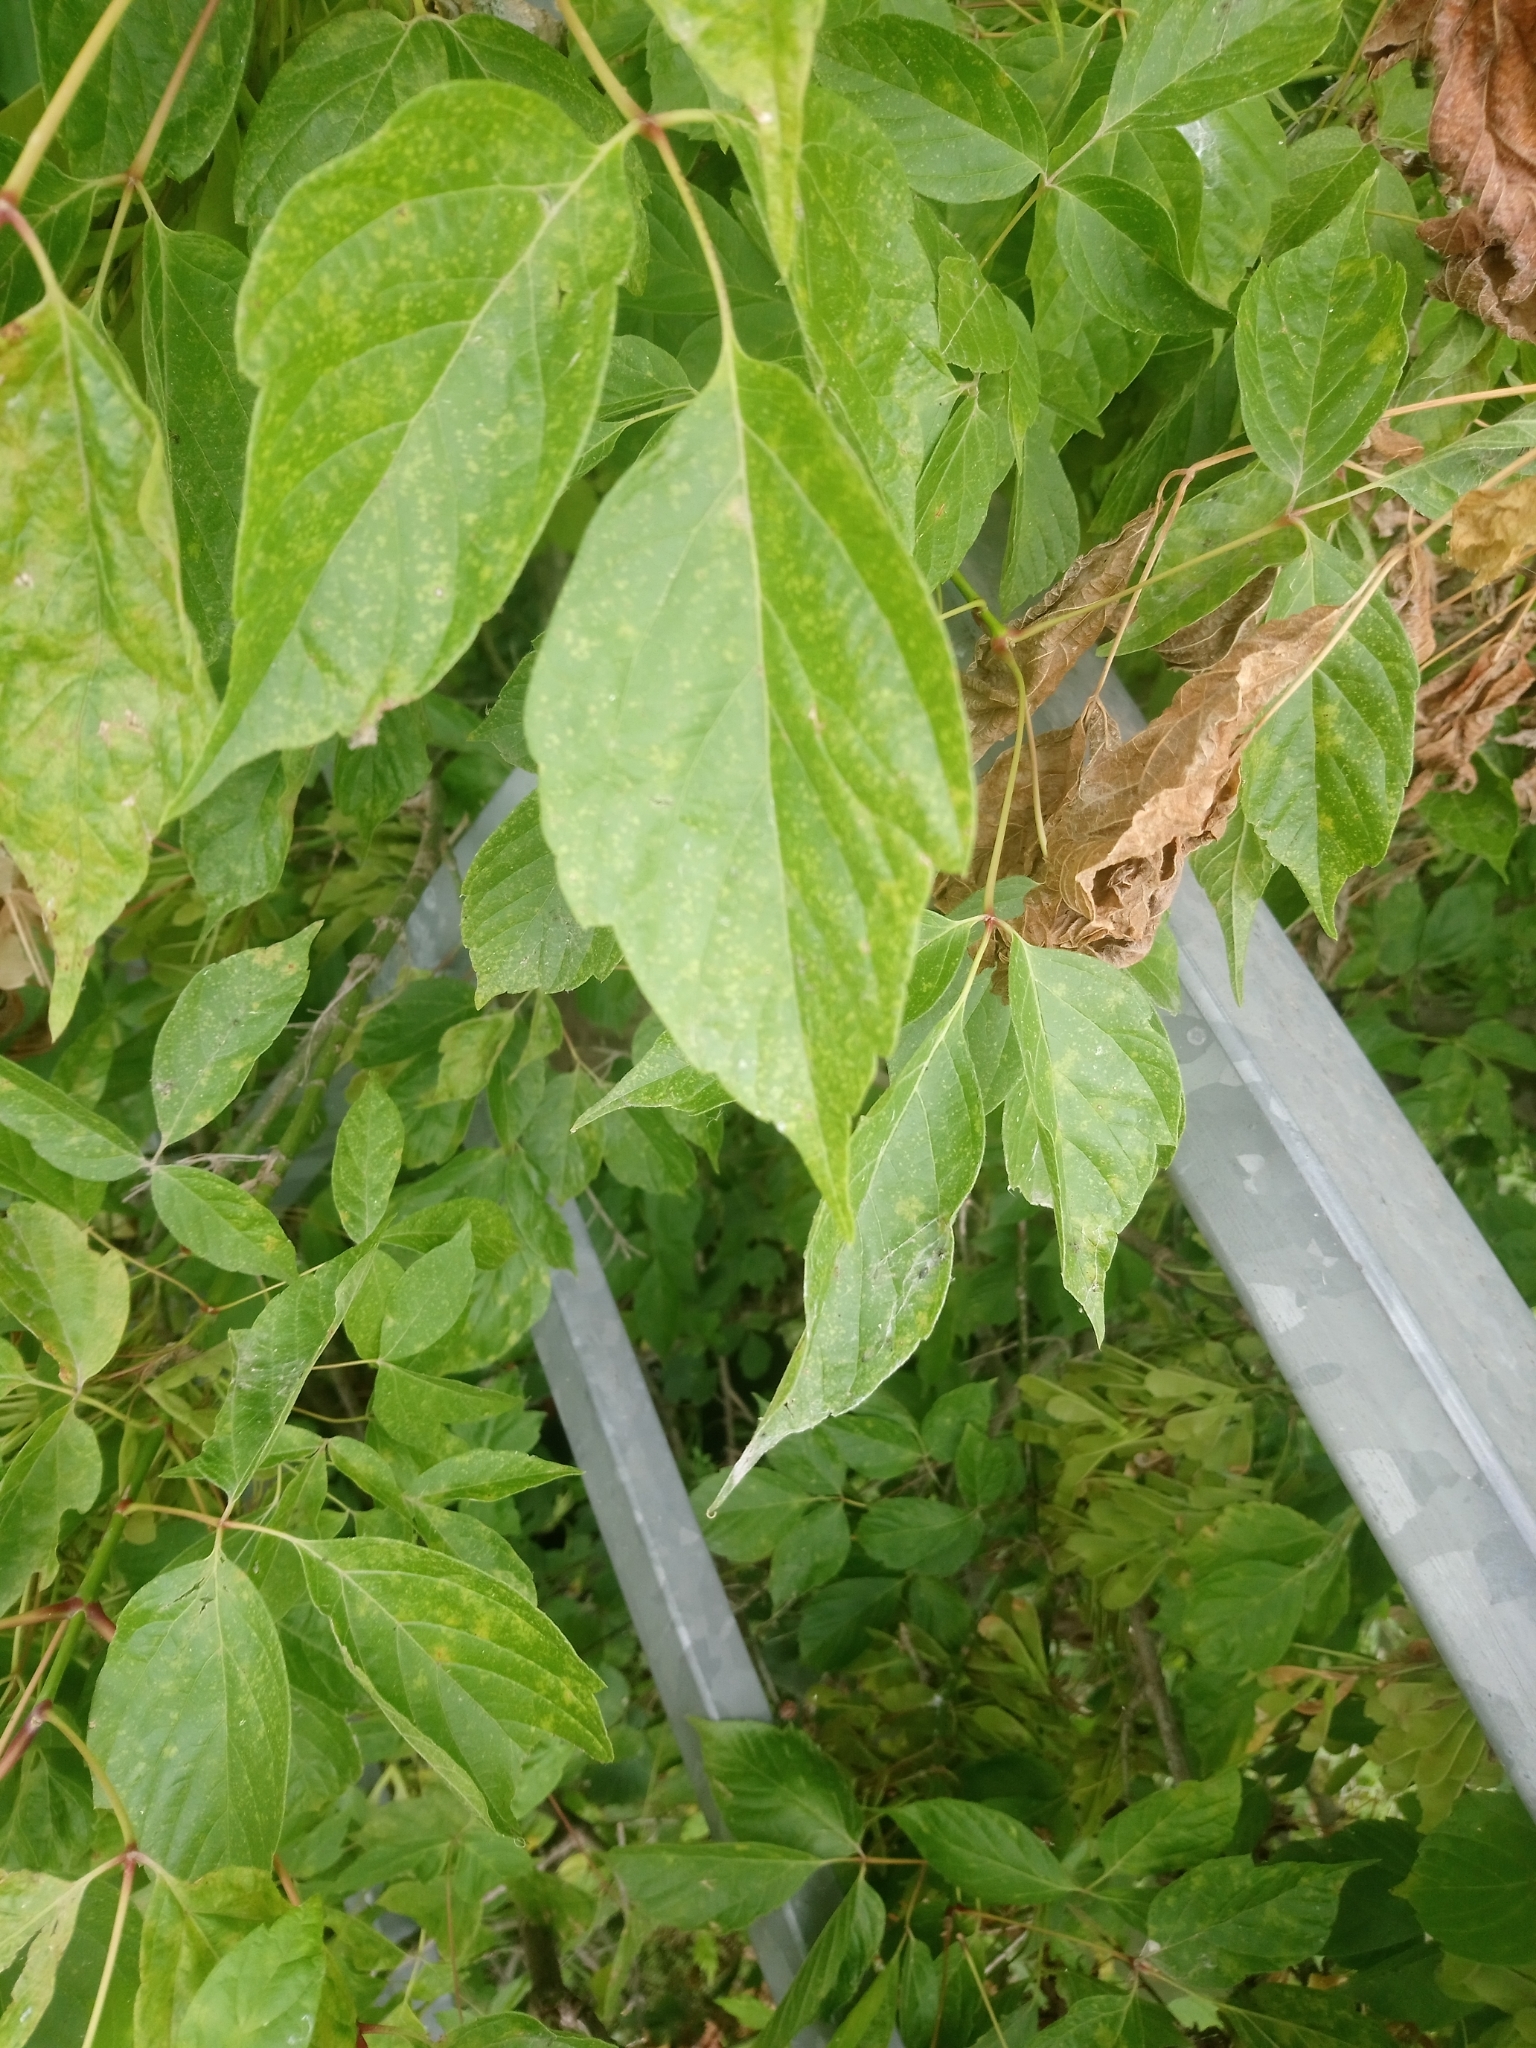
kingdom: Plantae
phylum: Tracheophyta
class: Magnoliopsida
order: Sapindales
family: Sapindaceae
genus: Acer
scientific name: Acer negundo
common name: Ashleaf maple
